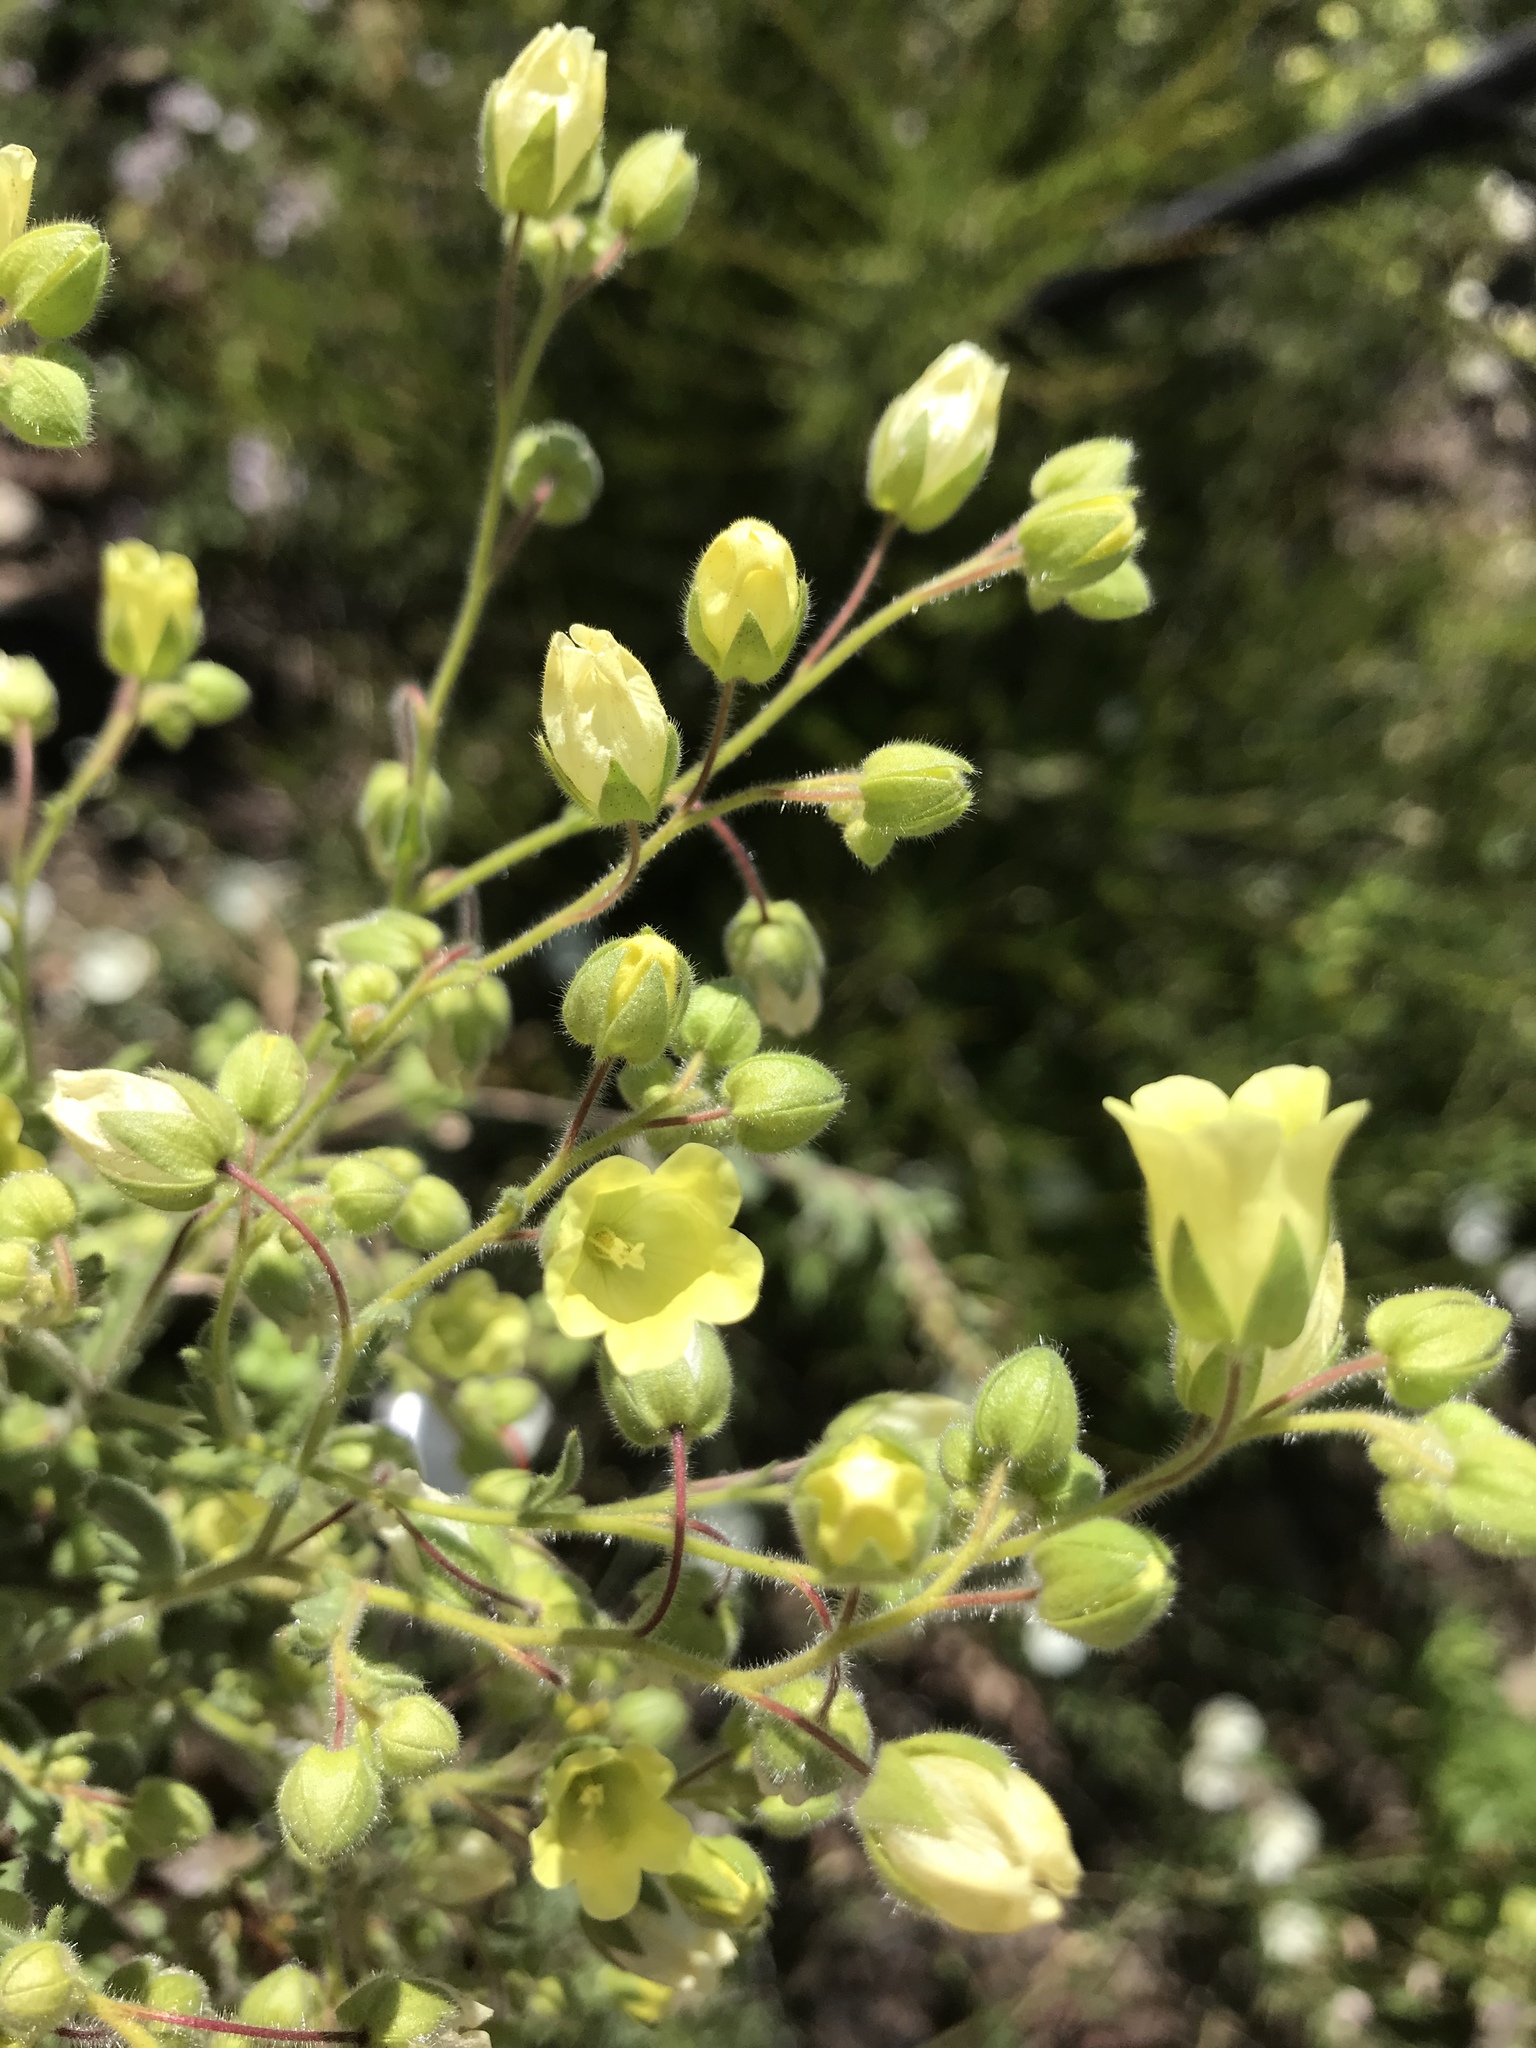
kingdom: Plantae
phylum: Tracheophyta
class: Magnoliopsida
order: Boraginales
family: Hydrophyllaceae
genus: Emmenanthe
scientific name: Emmenanthe penduliflora
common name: Whispering-bells
